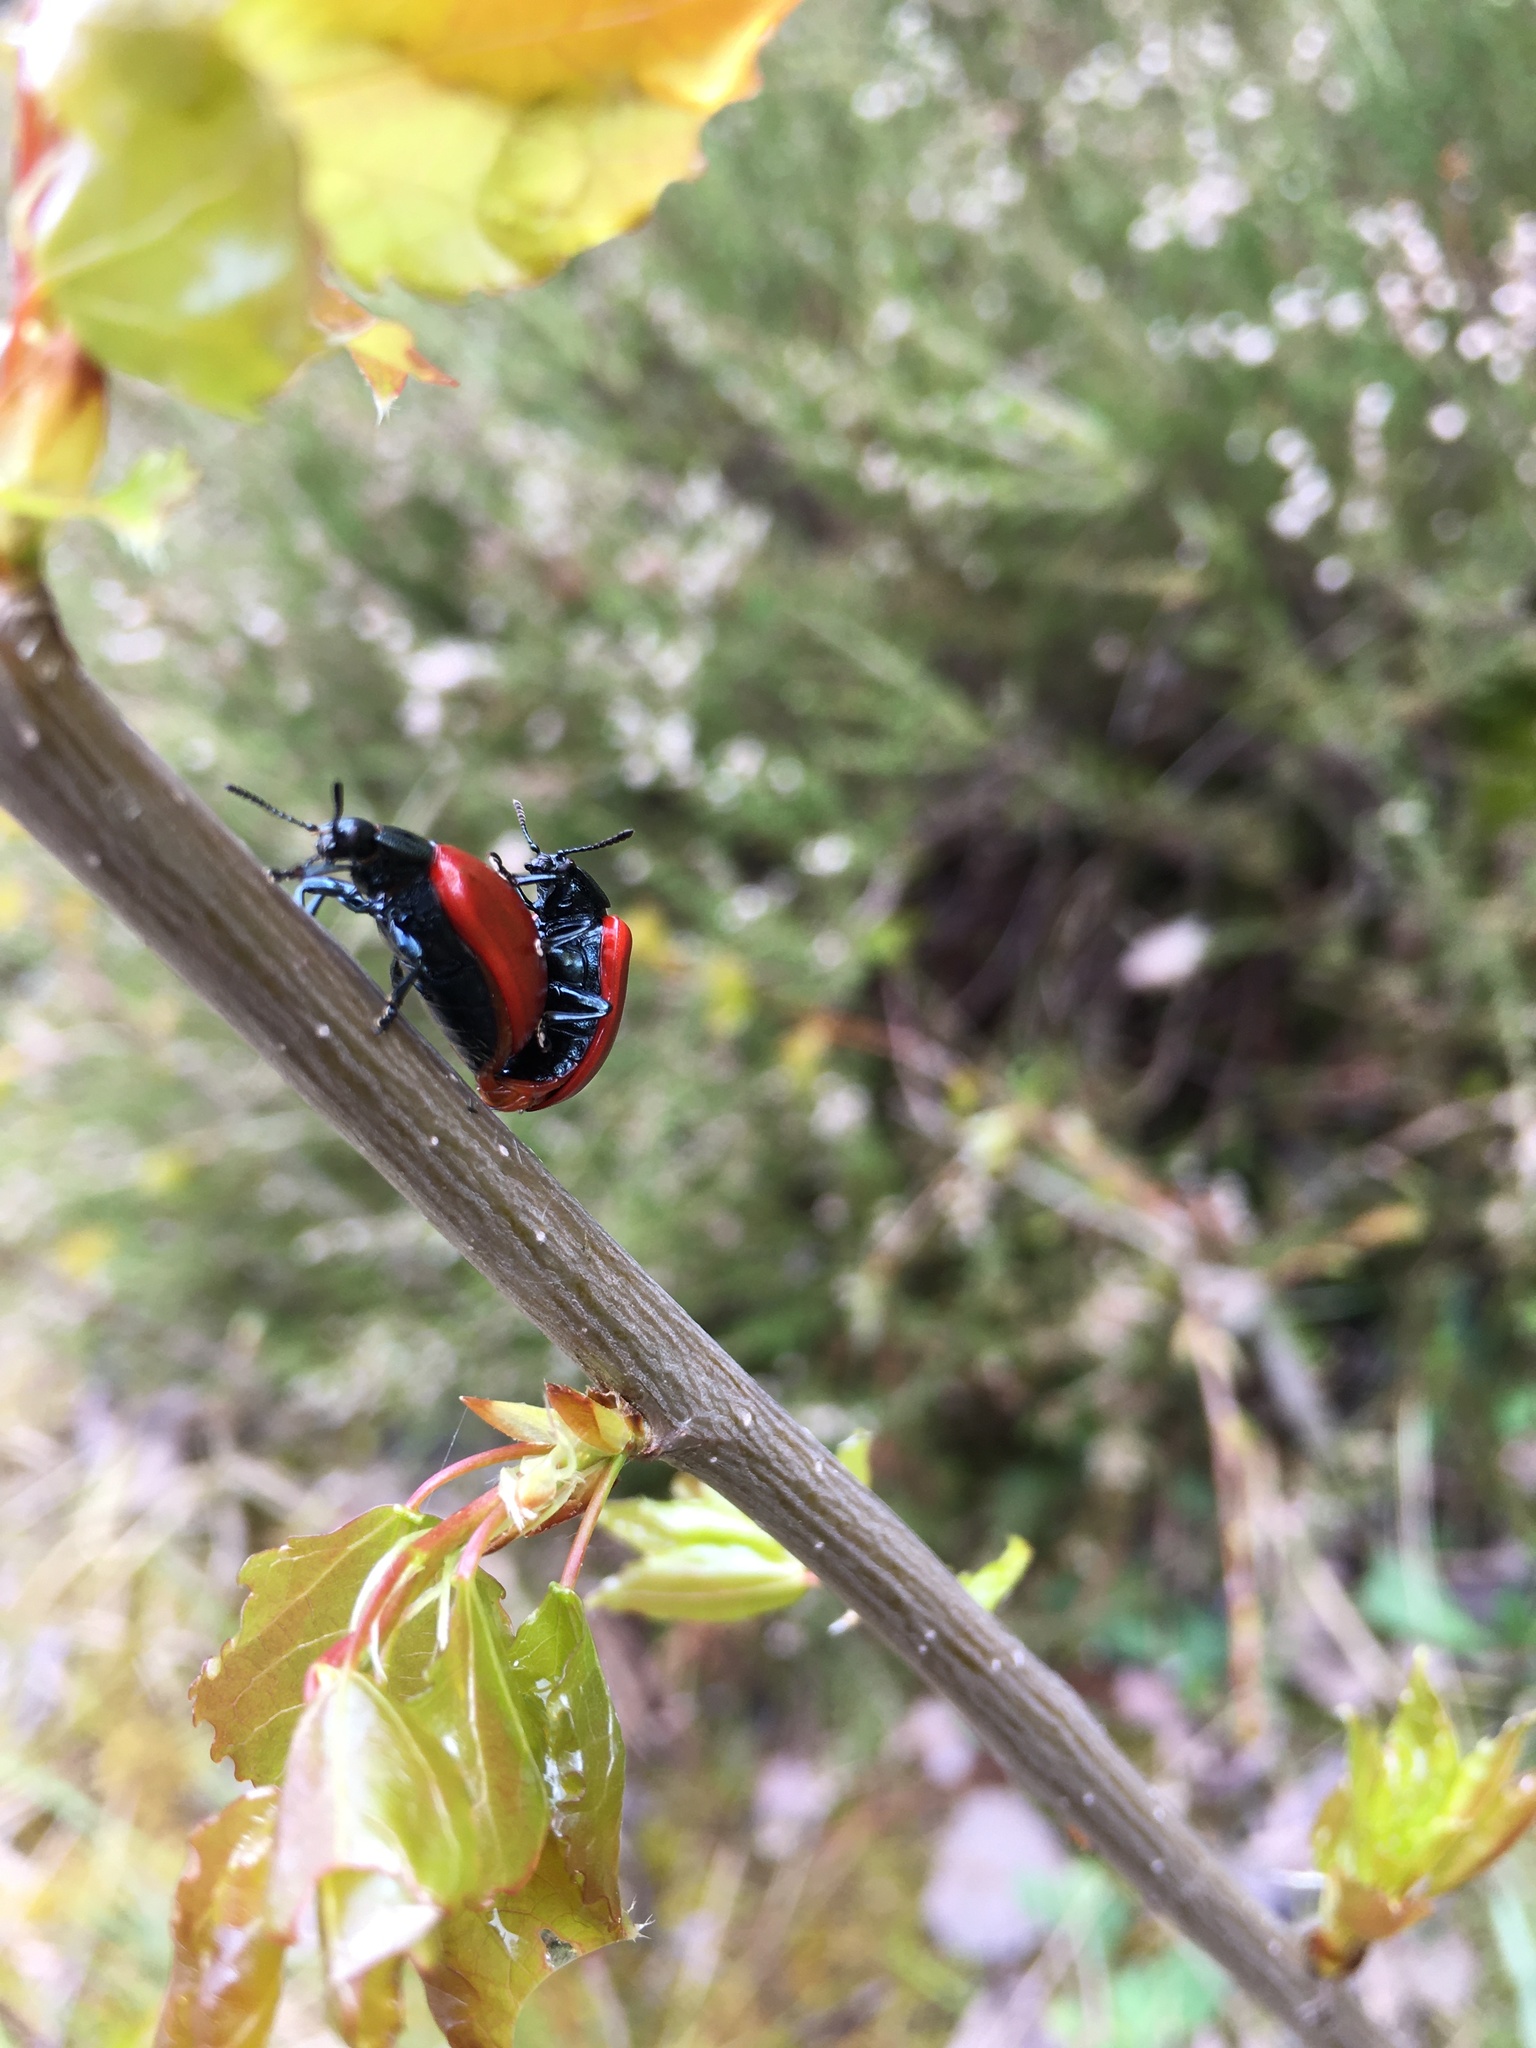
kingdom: Animalia
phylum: Arthropoda
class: Insecta
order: Coleoptera
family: Chrysomelidae
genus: Chrysomela
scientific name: Chrysomela populi
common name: Red poplar leaf beetle
